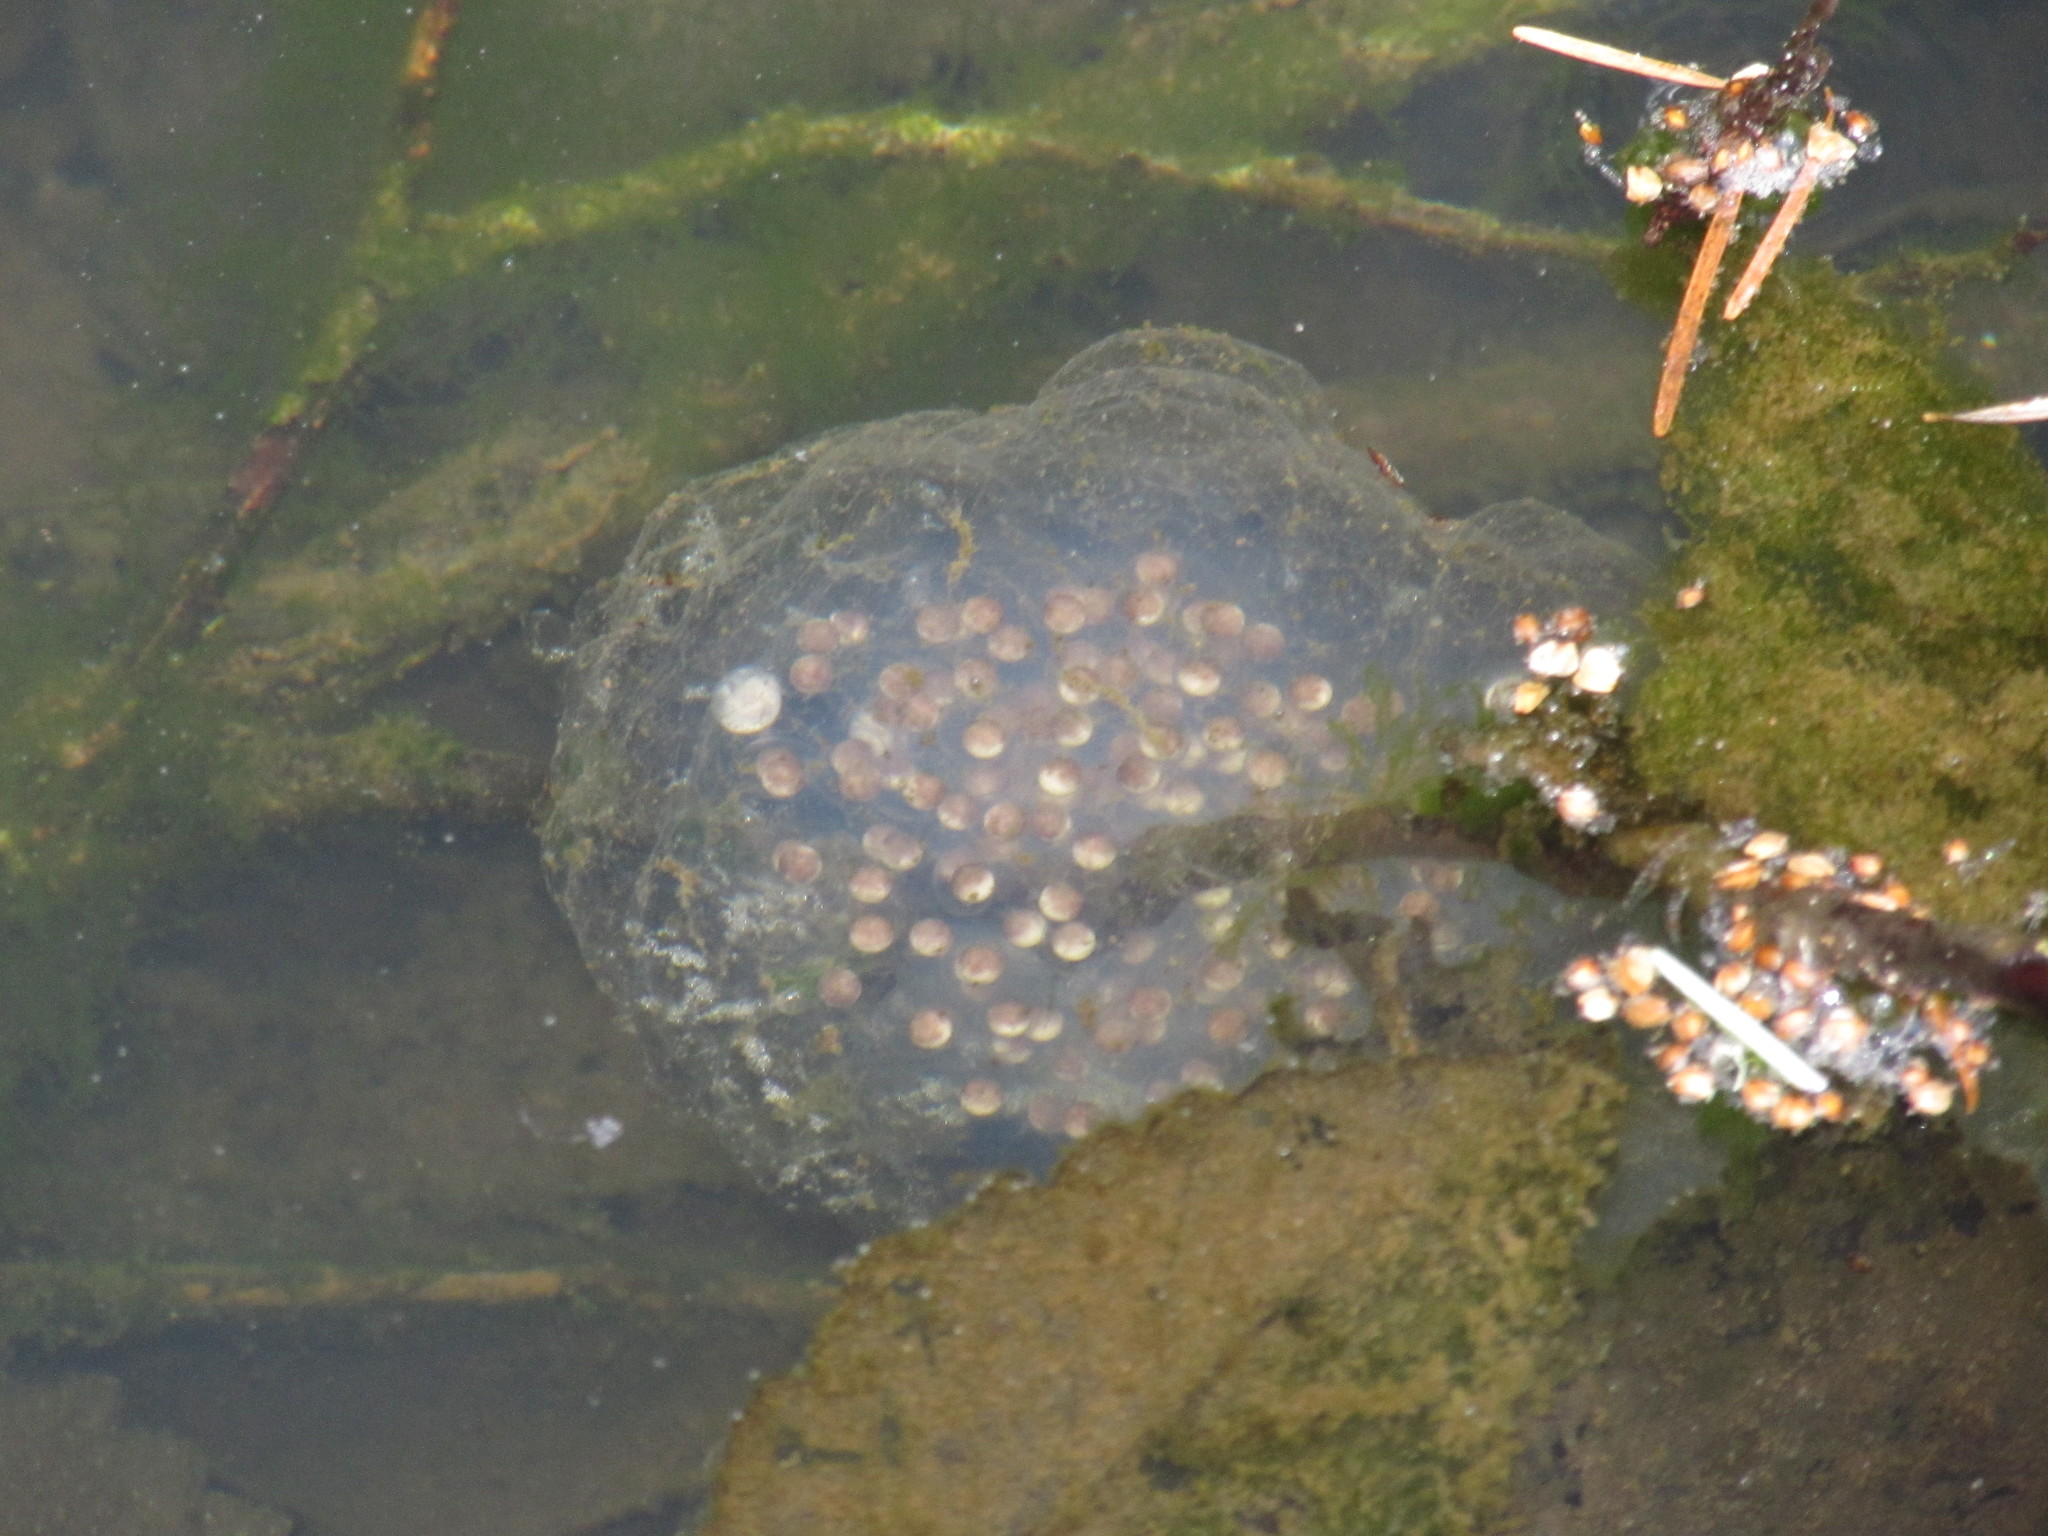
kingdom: Animalia
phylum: Chordata
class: Amphibia
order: Caudata
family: Ambystomatidae
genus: Ambystoma
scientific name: Ambystoma gracile
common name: Northwestern salamander
